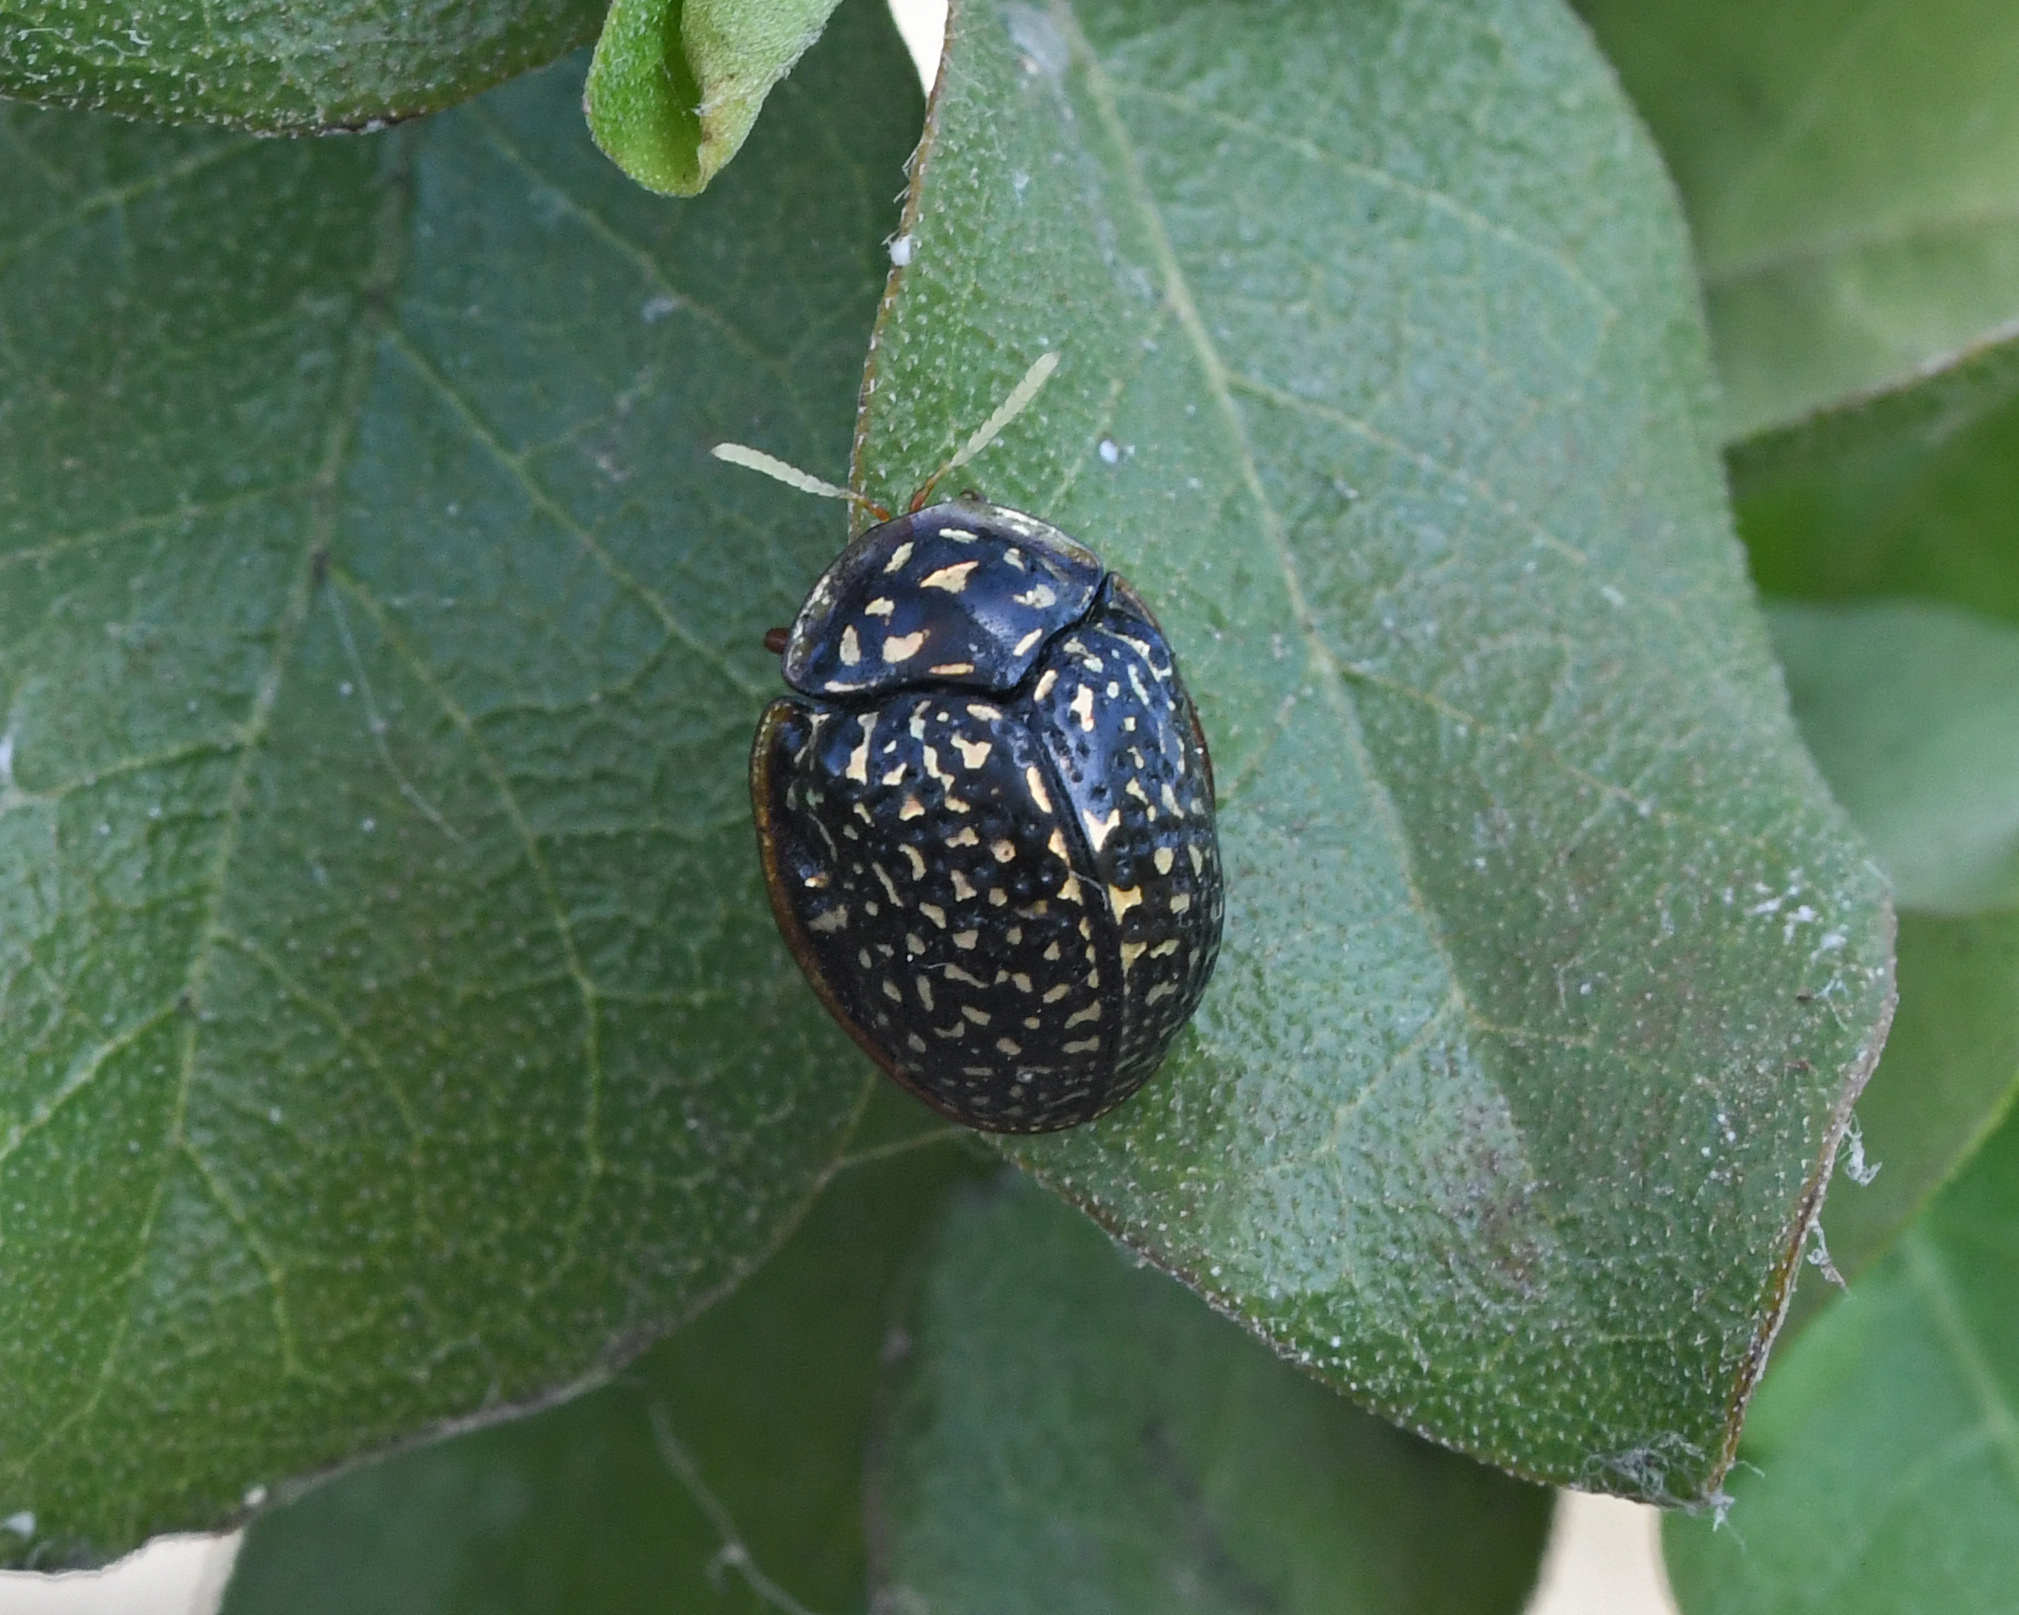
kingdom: Animalia
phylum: Arthropoda
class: Insecta
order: Coleoptera
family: Chrysomelidae
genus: Asteriza
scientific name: Asteriza flavicornis
